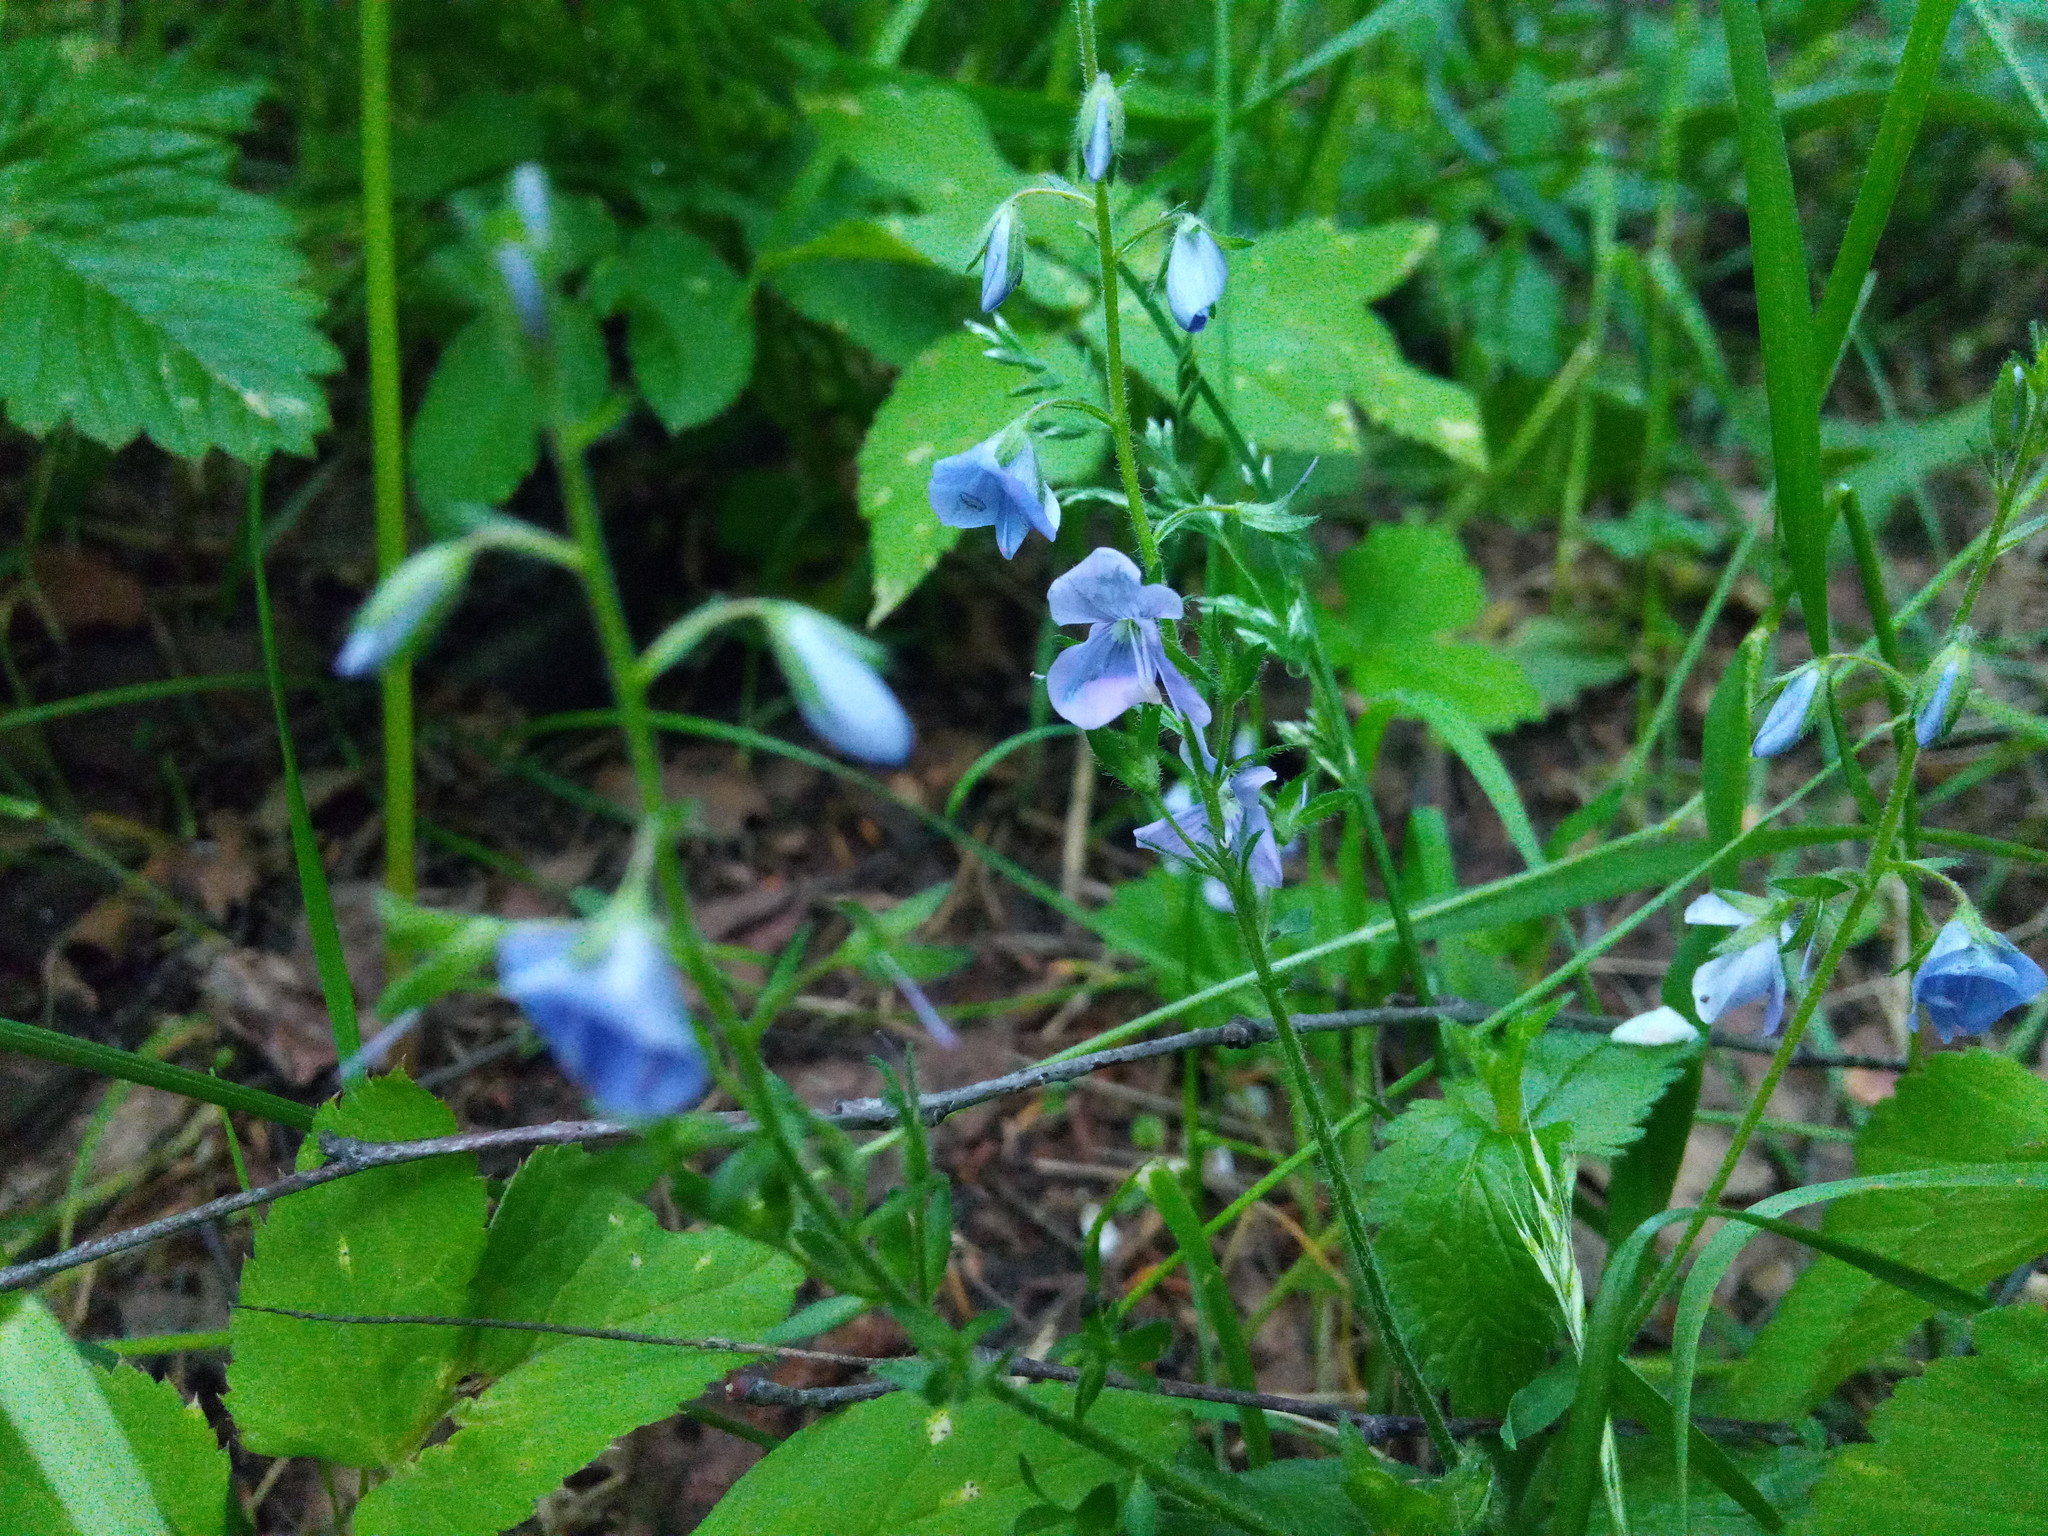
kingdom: Plantae
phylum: Tracheophyta
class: Magnoliopsida
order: Lamiales
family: Plantaginaceae
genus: Veronica
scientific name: Veronica chamaedrys
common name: Germander speedwell
